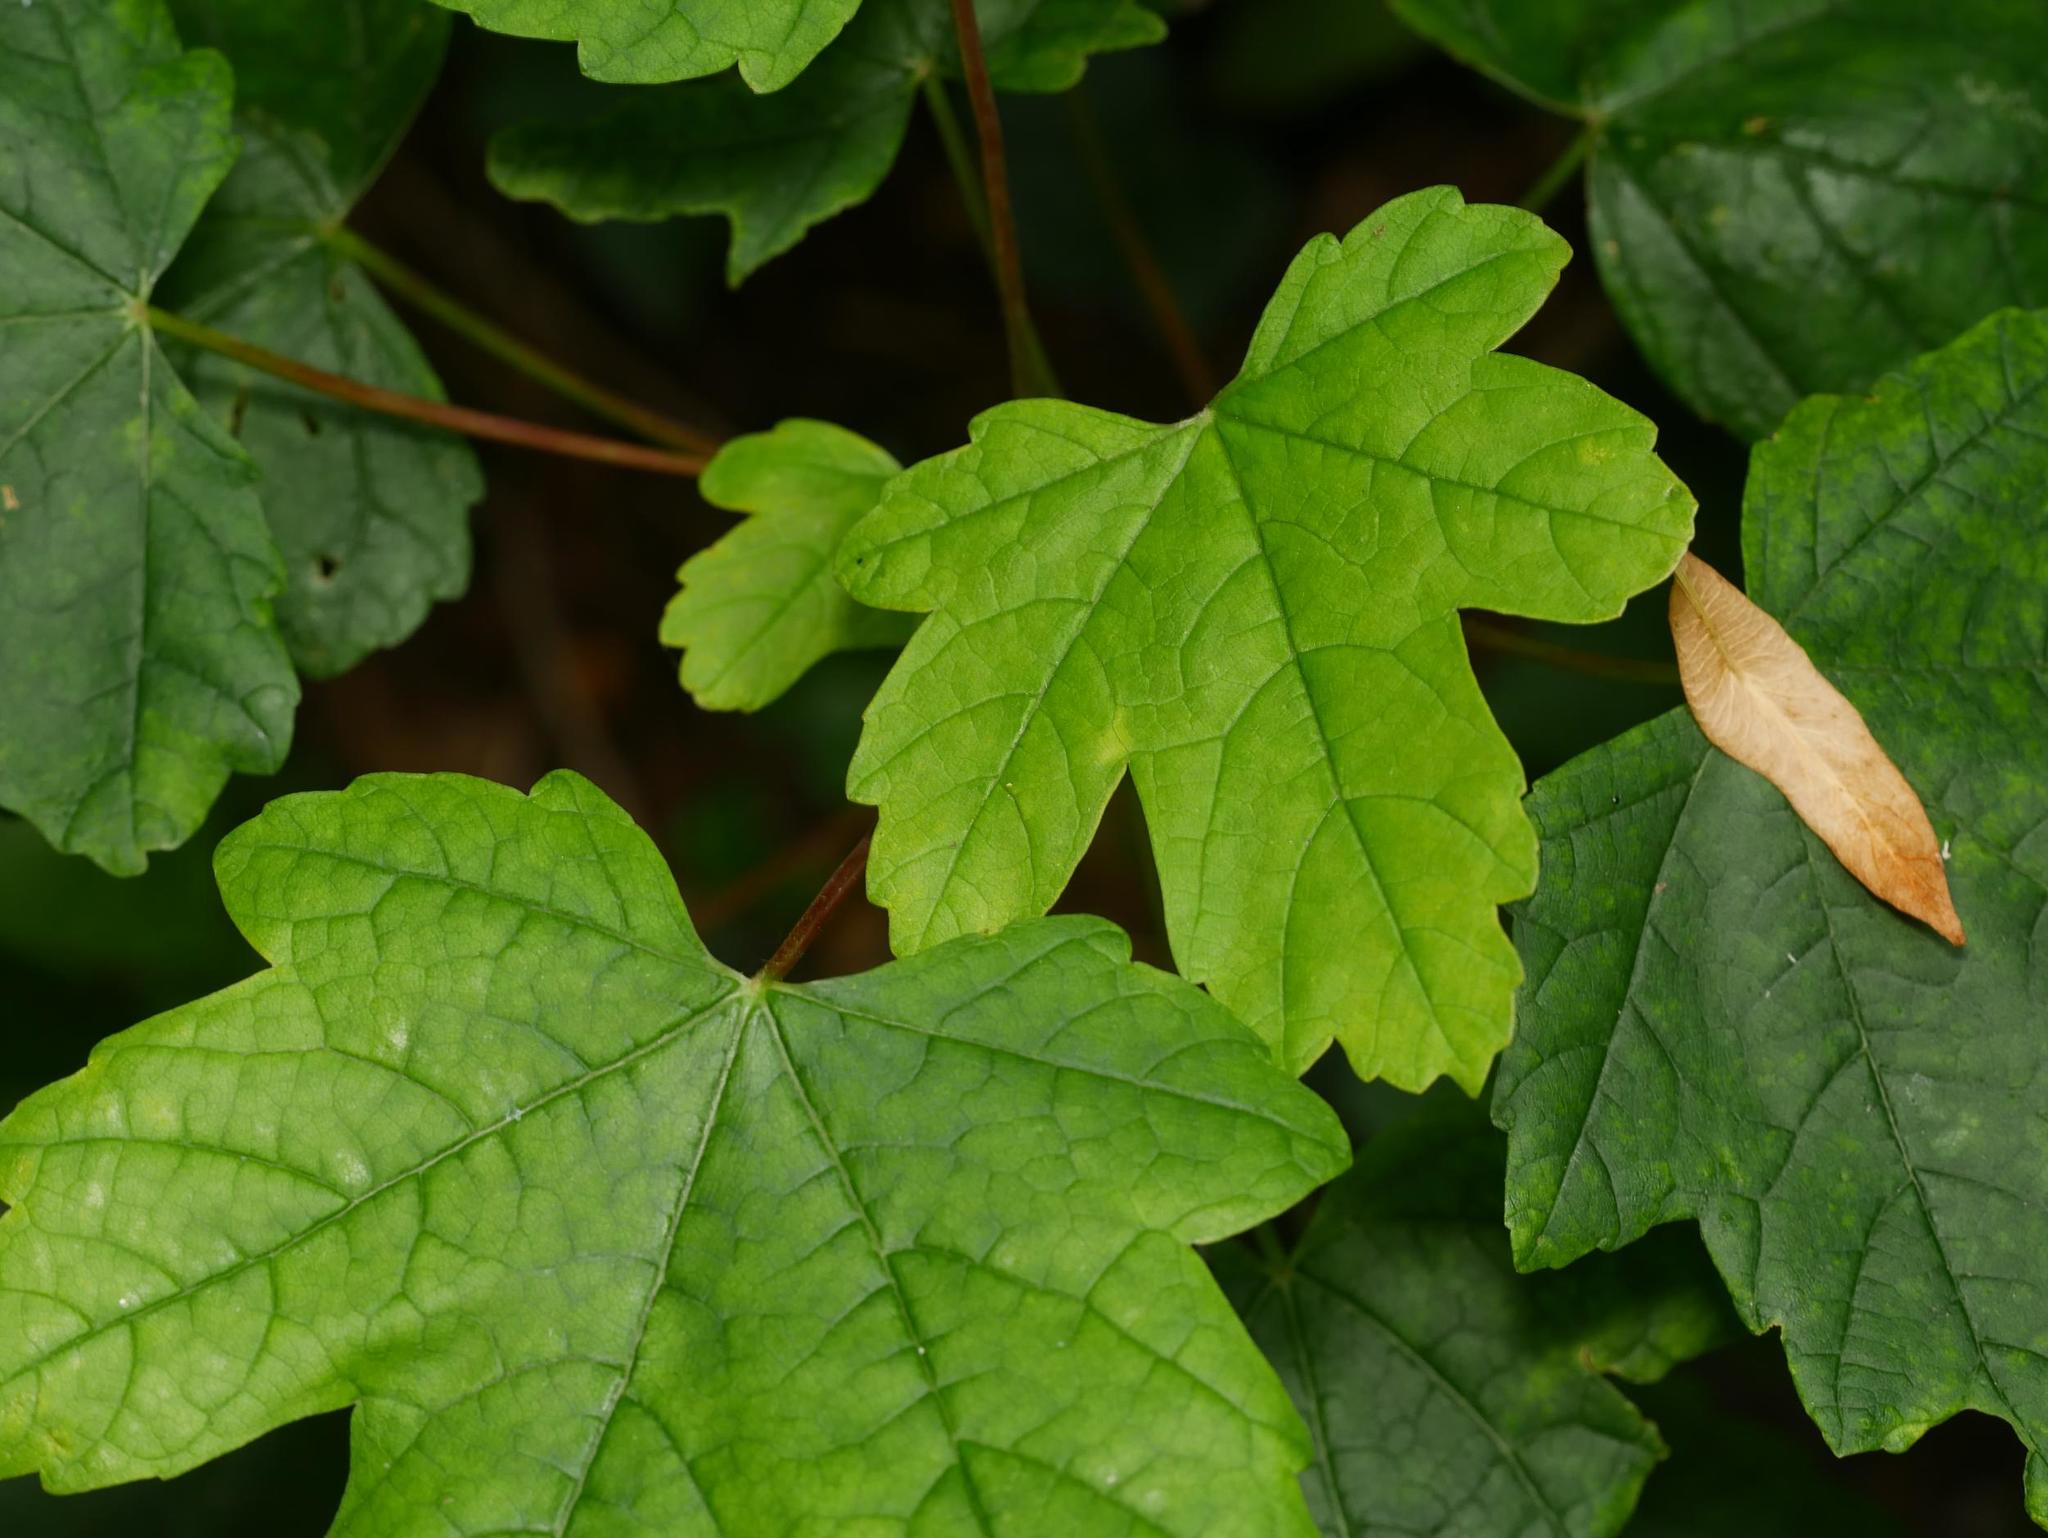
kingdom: Plantae
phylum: Tracheophyta
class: Magnoliopsida
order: Sapindales
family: Sapindaceae
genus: Acer
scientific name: Acer pseudoplatanus
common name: Sycamore
